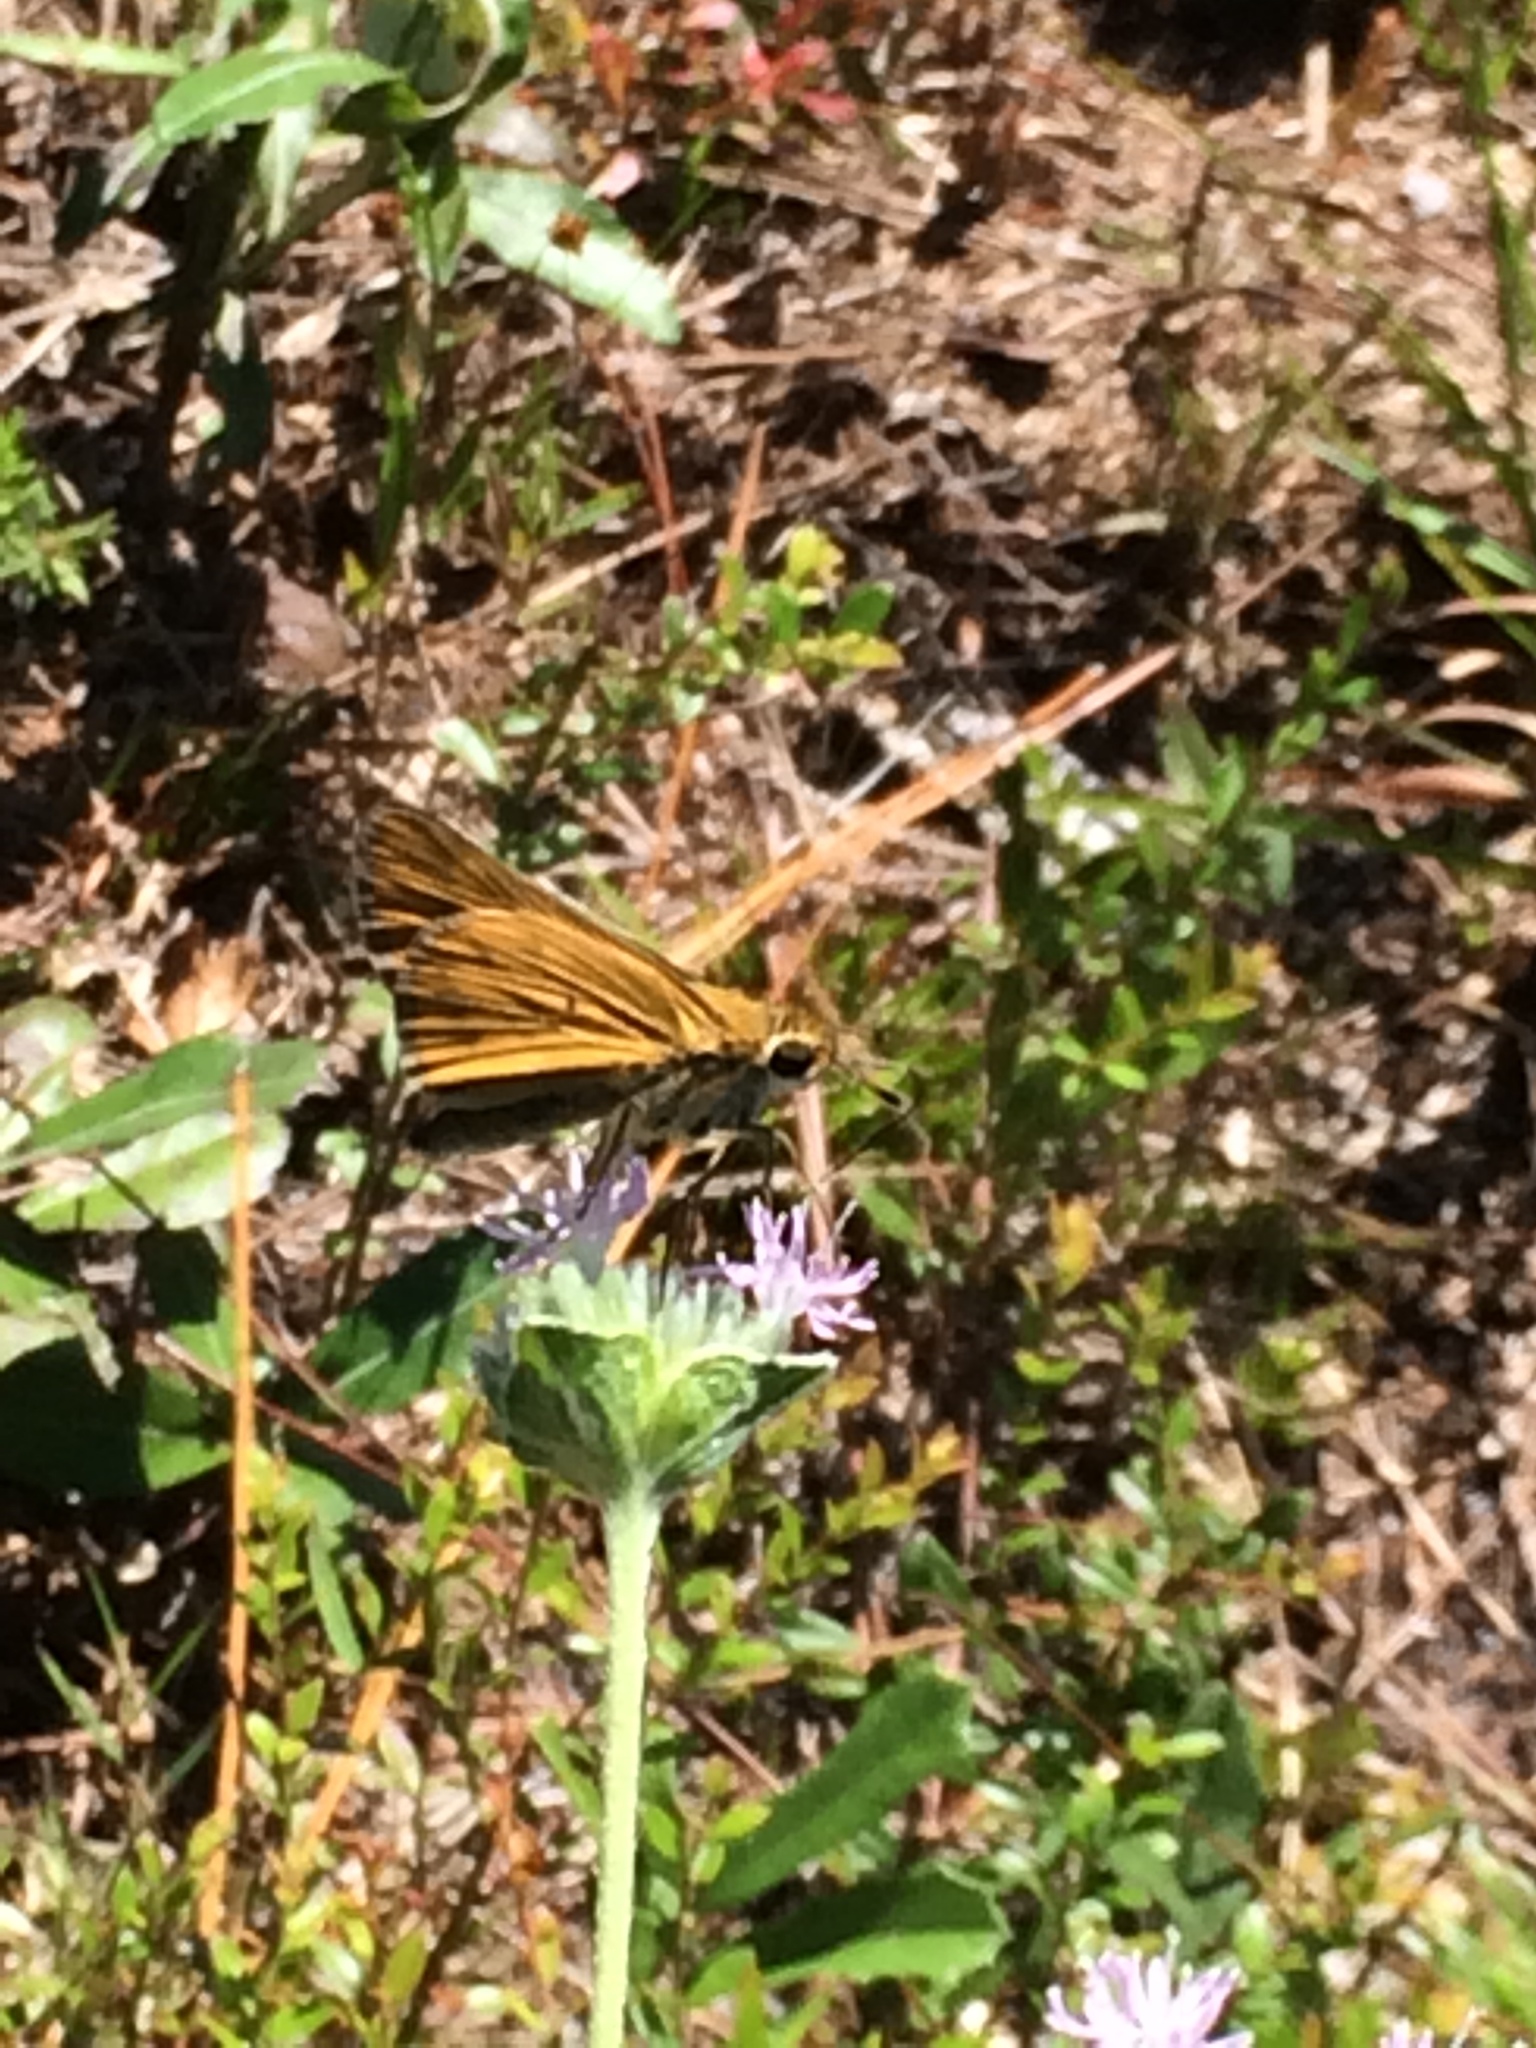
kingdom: Animalia
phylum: Arthropoda
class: Insecta
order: Lepidoptera
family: Hesperiidae
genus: Hylephila
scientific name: Hylephila phyleus
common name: Fiery skipper
